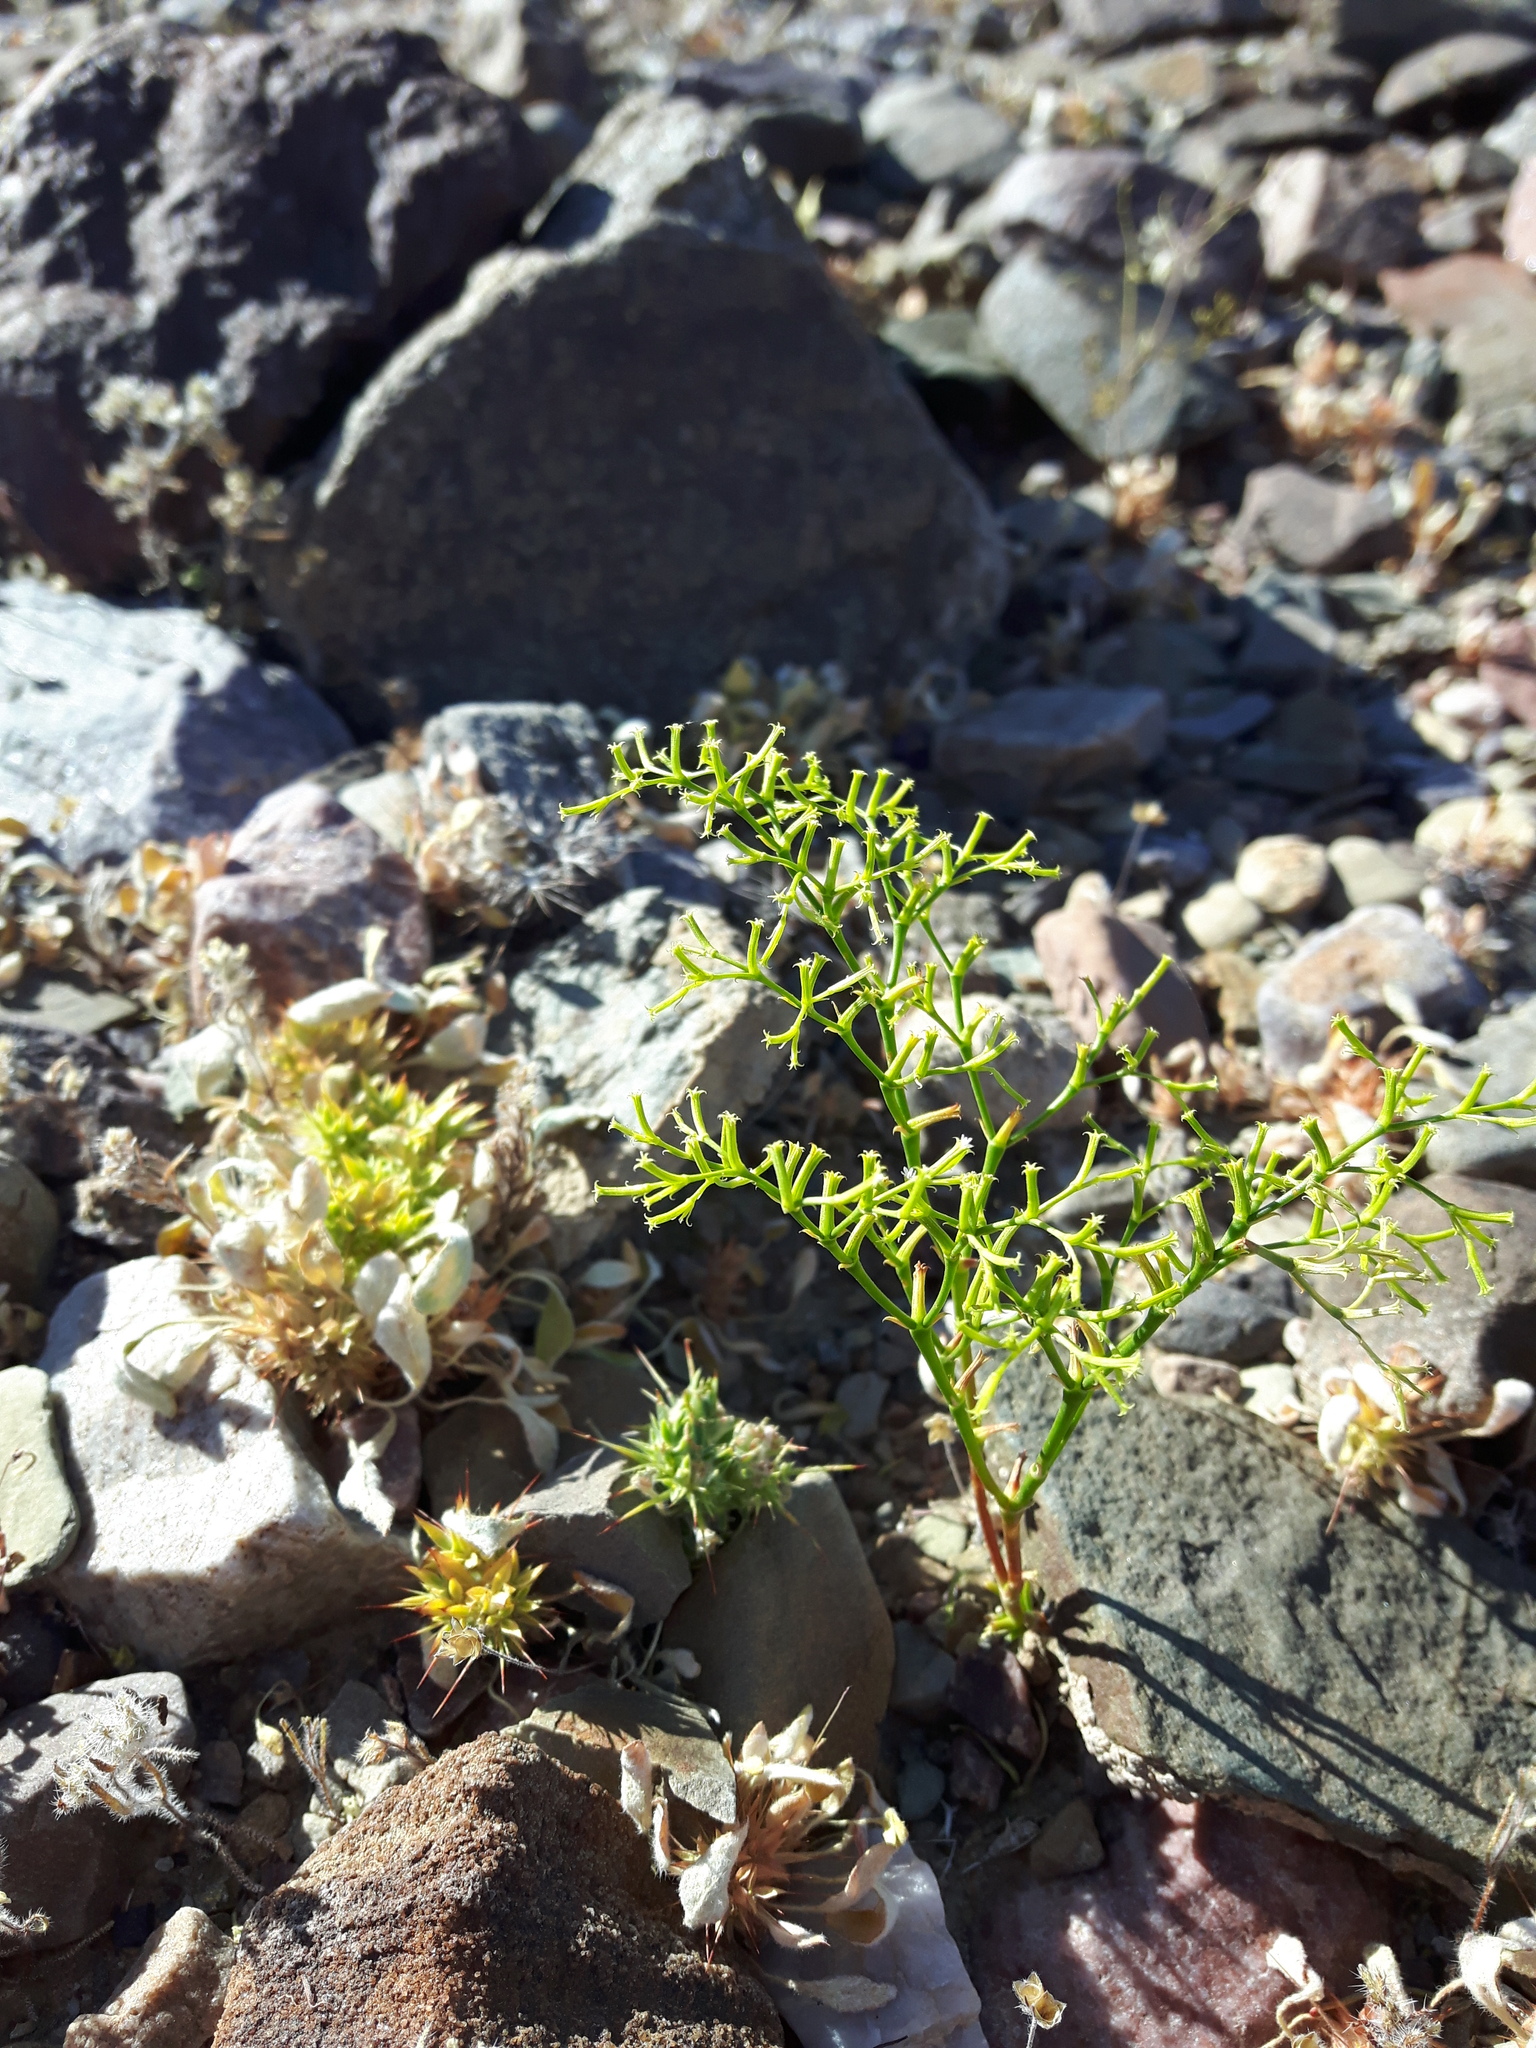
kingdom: Plantae
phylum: Tracheophyta
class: Magnoliopsida
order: Caryophyllales
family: Polygonaceae
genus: Chorizanthe
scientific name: Chorizanthe brevicornu
